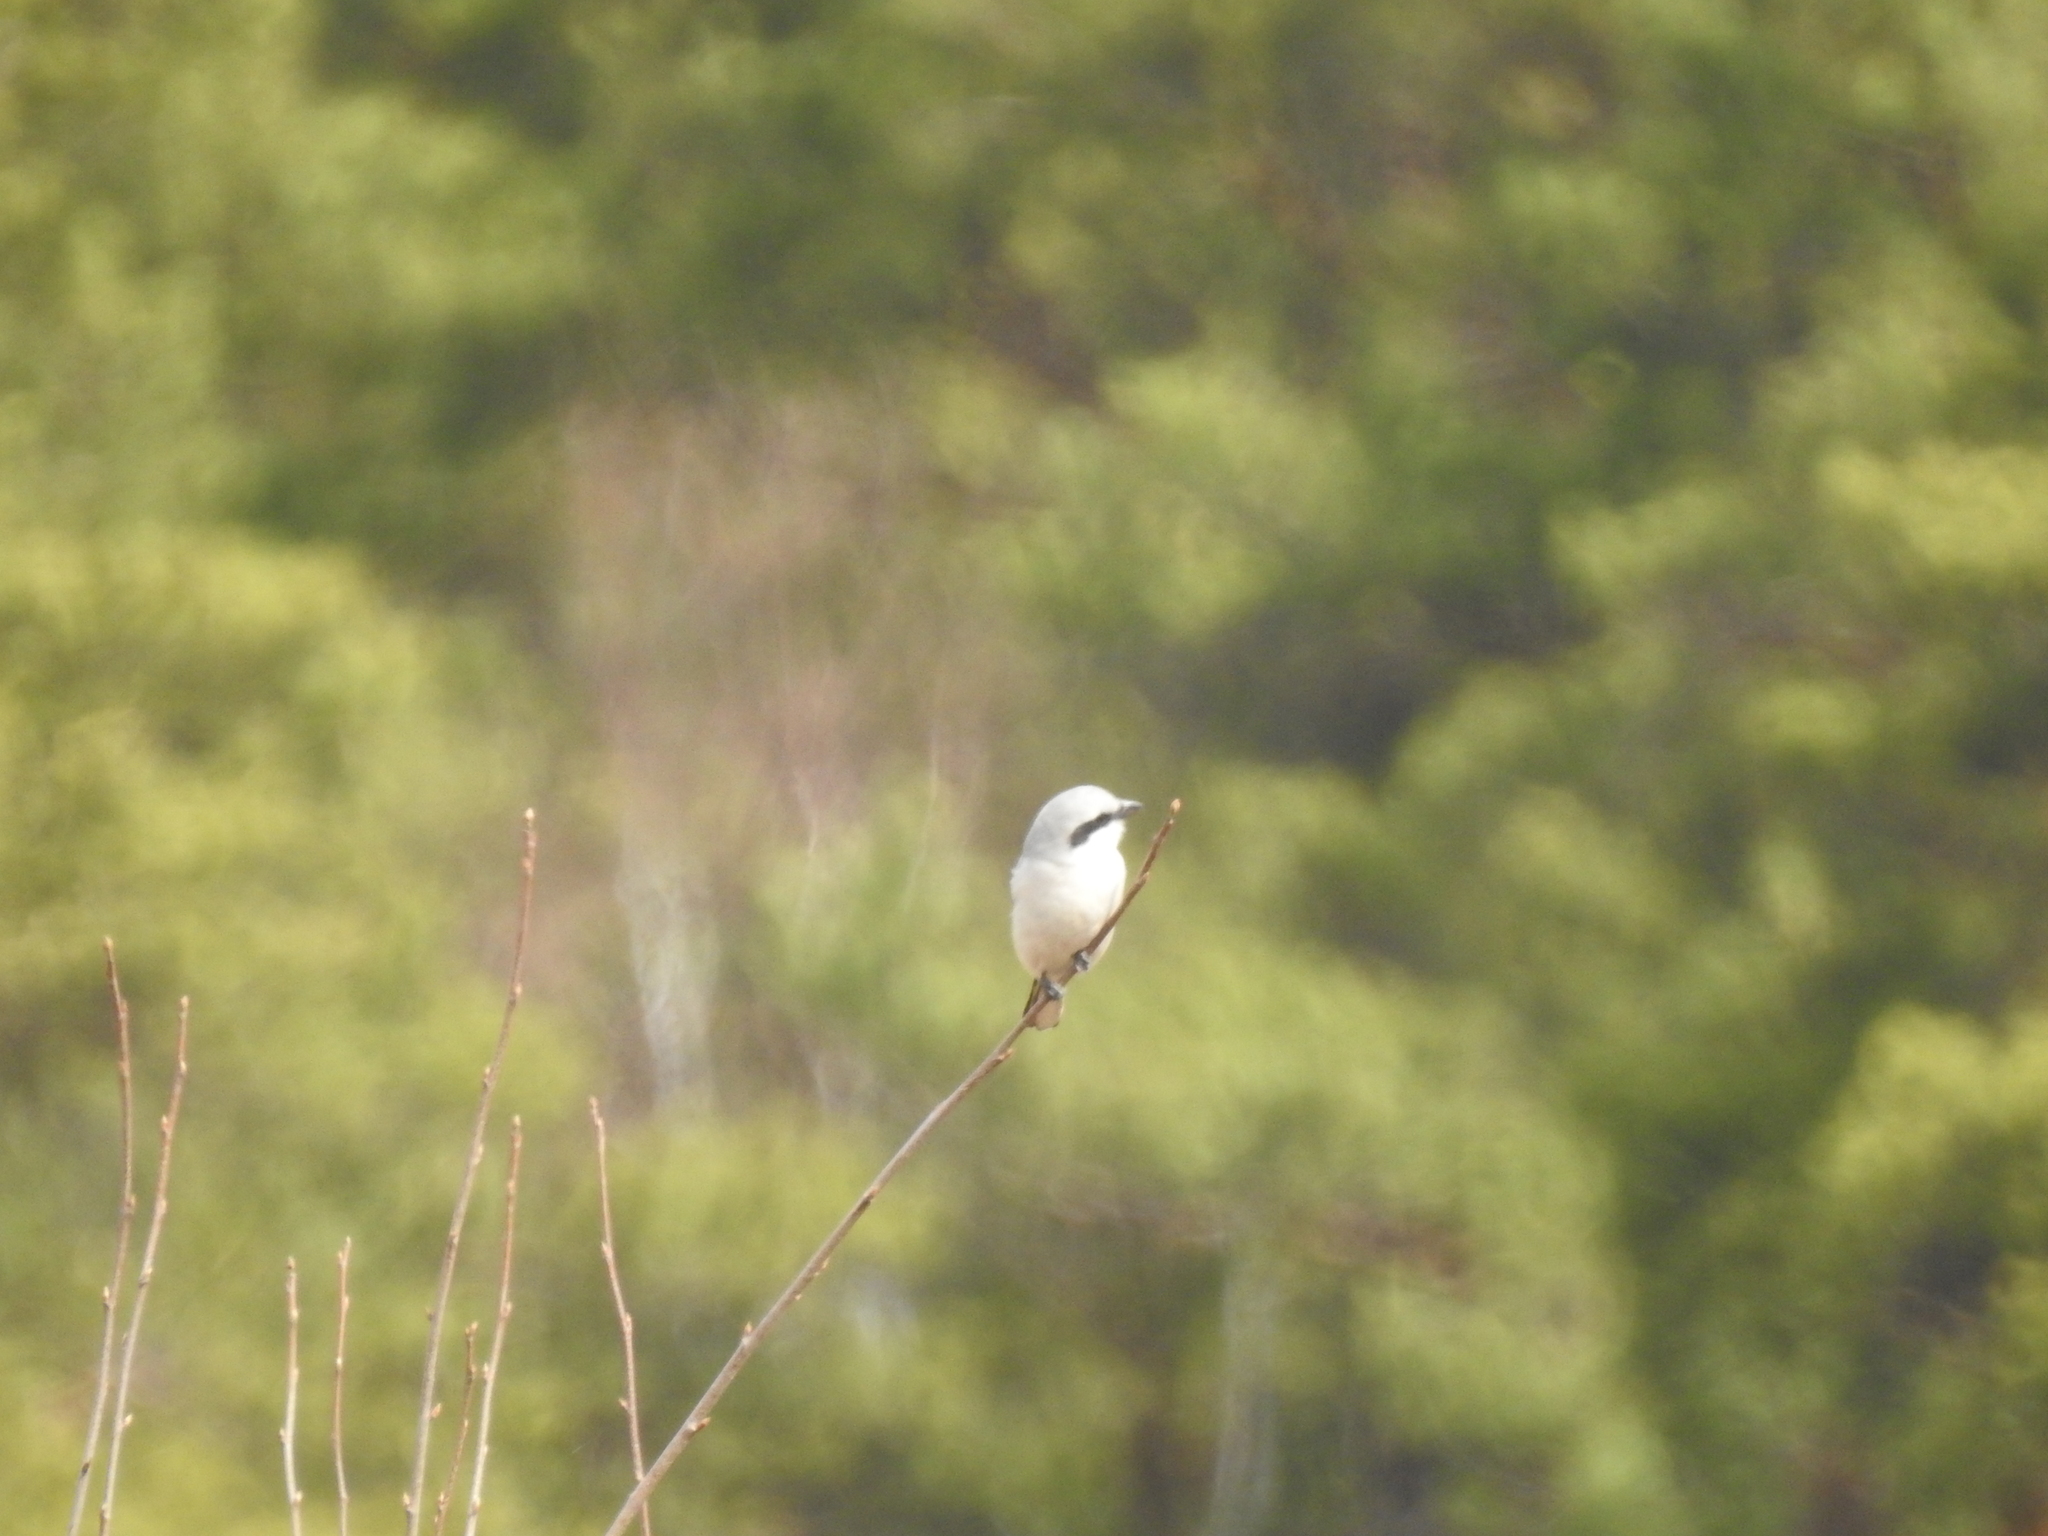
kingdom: Animalia
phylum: Chordata
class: Aves
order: Passeriformes
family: Laniidae
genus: Lanius
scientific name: Lanius excubitor
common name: Great grey shrike
